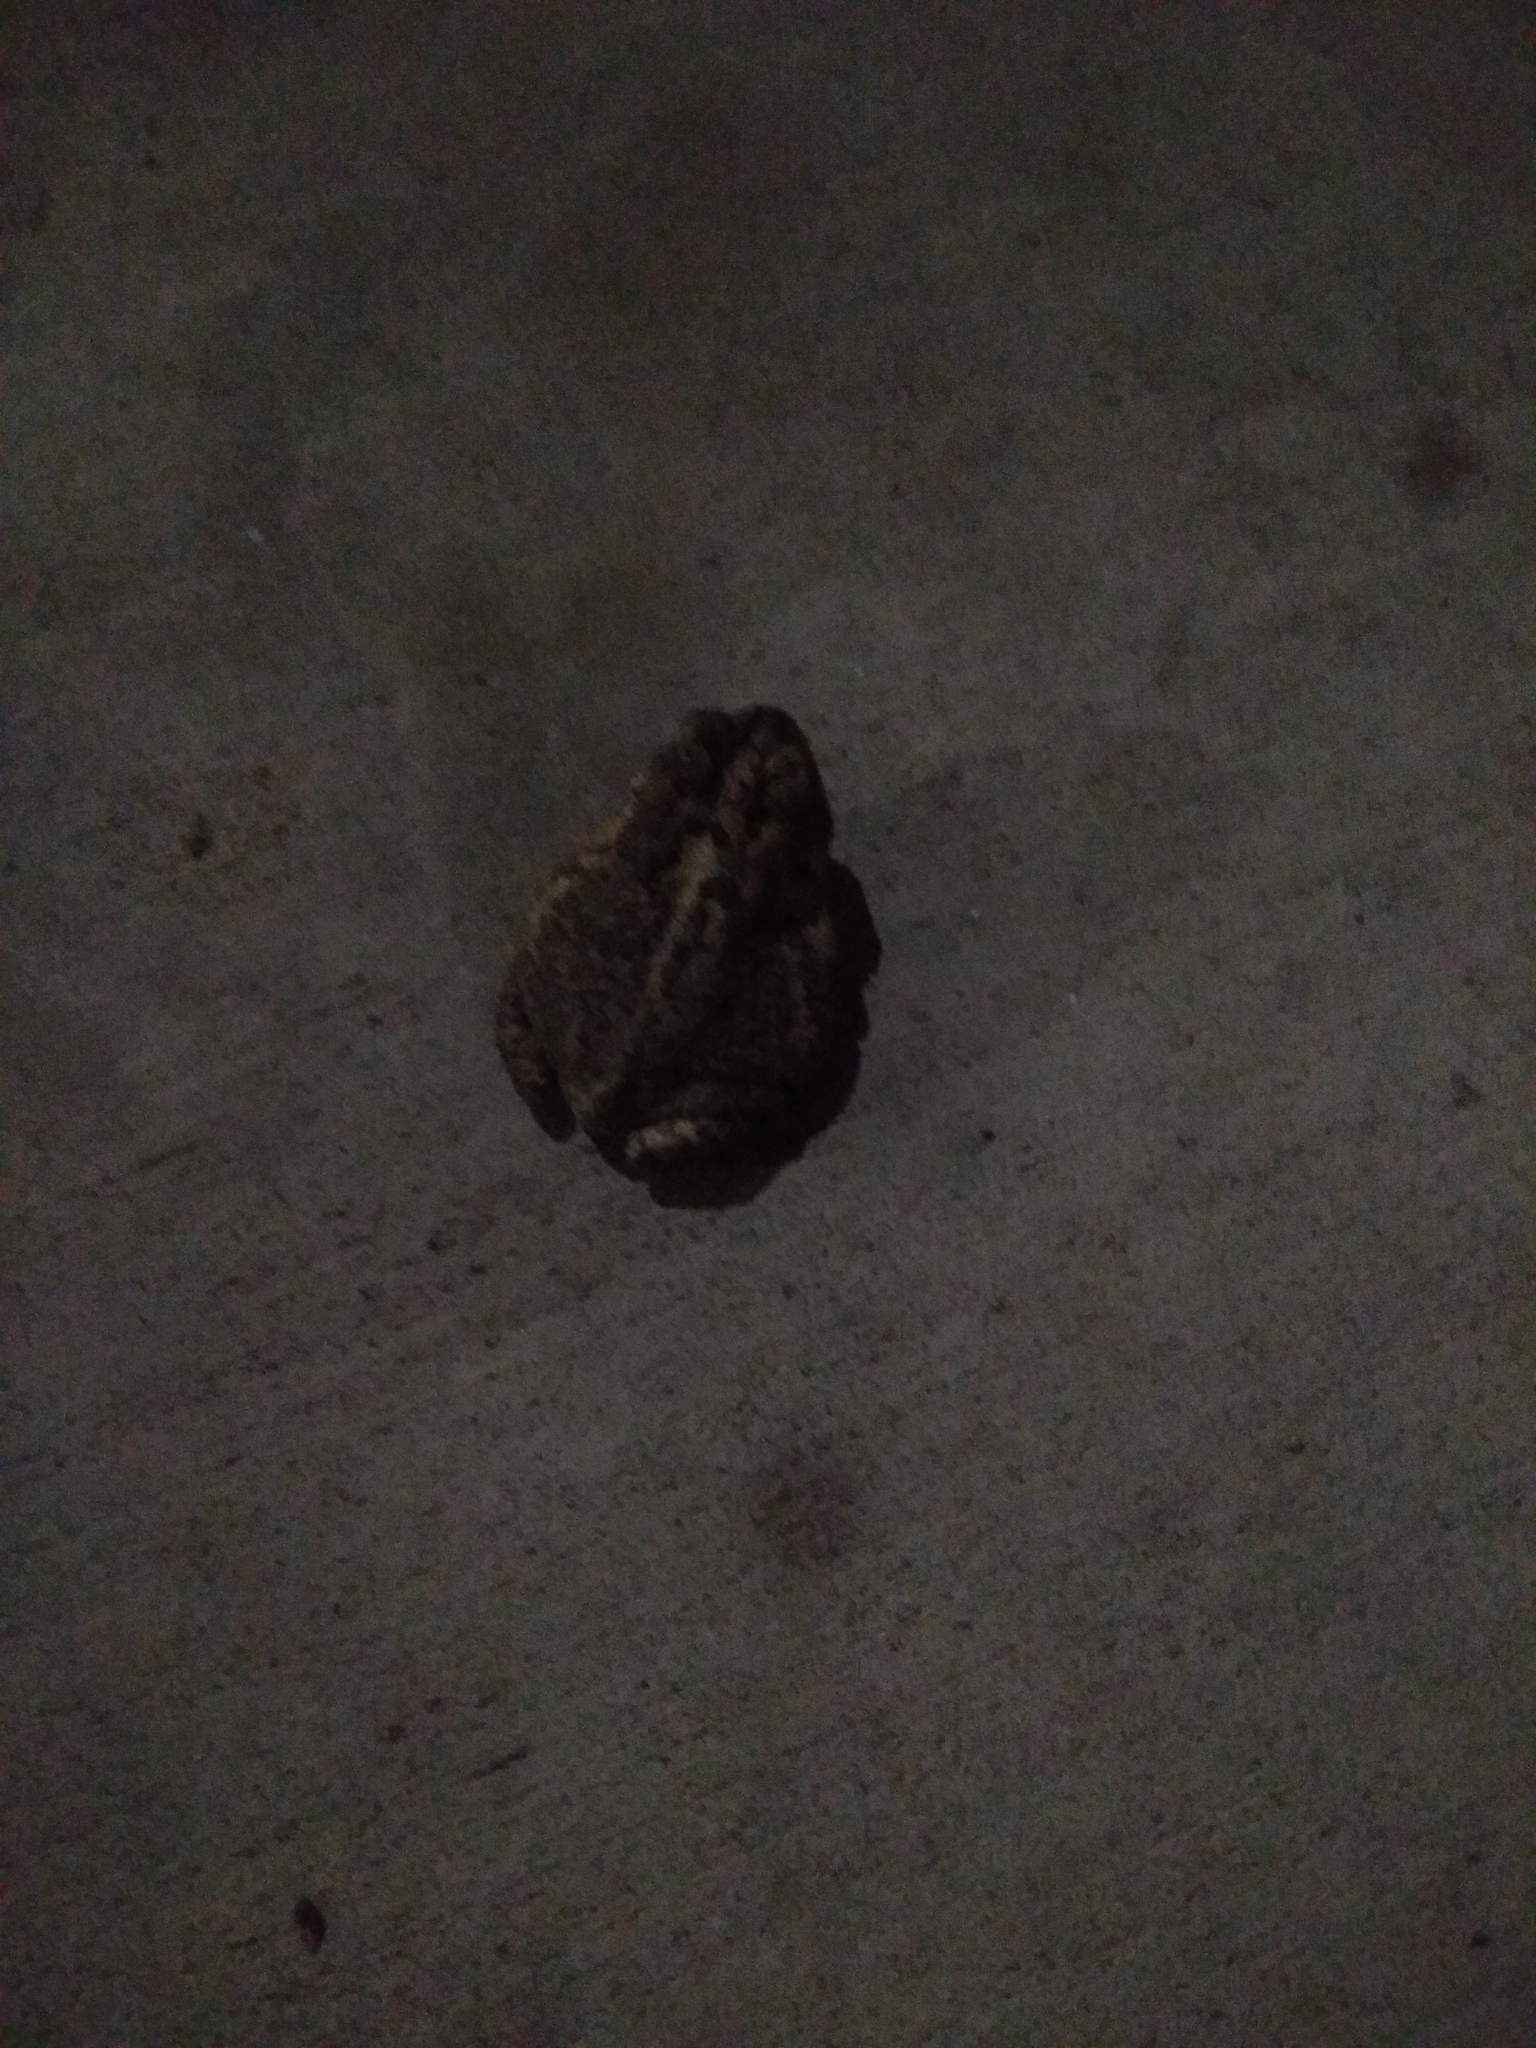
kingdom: Animalia
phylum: Chordata
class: Amphibia
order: Anura
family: Bufonidae
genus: Anaxyrus
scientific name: Anaxyrus terrestris
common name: Southern toad
